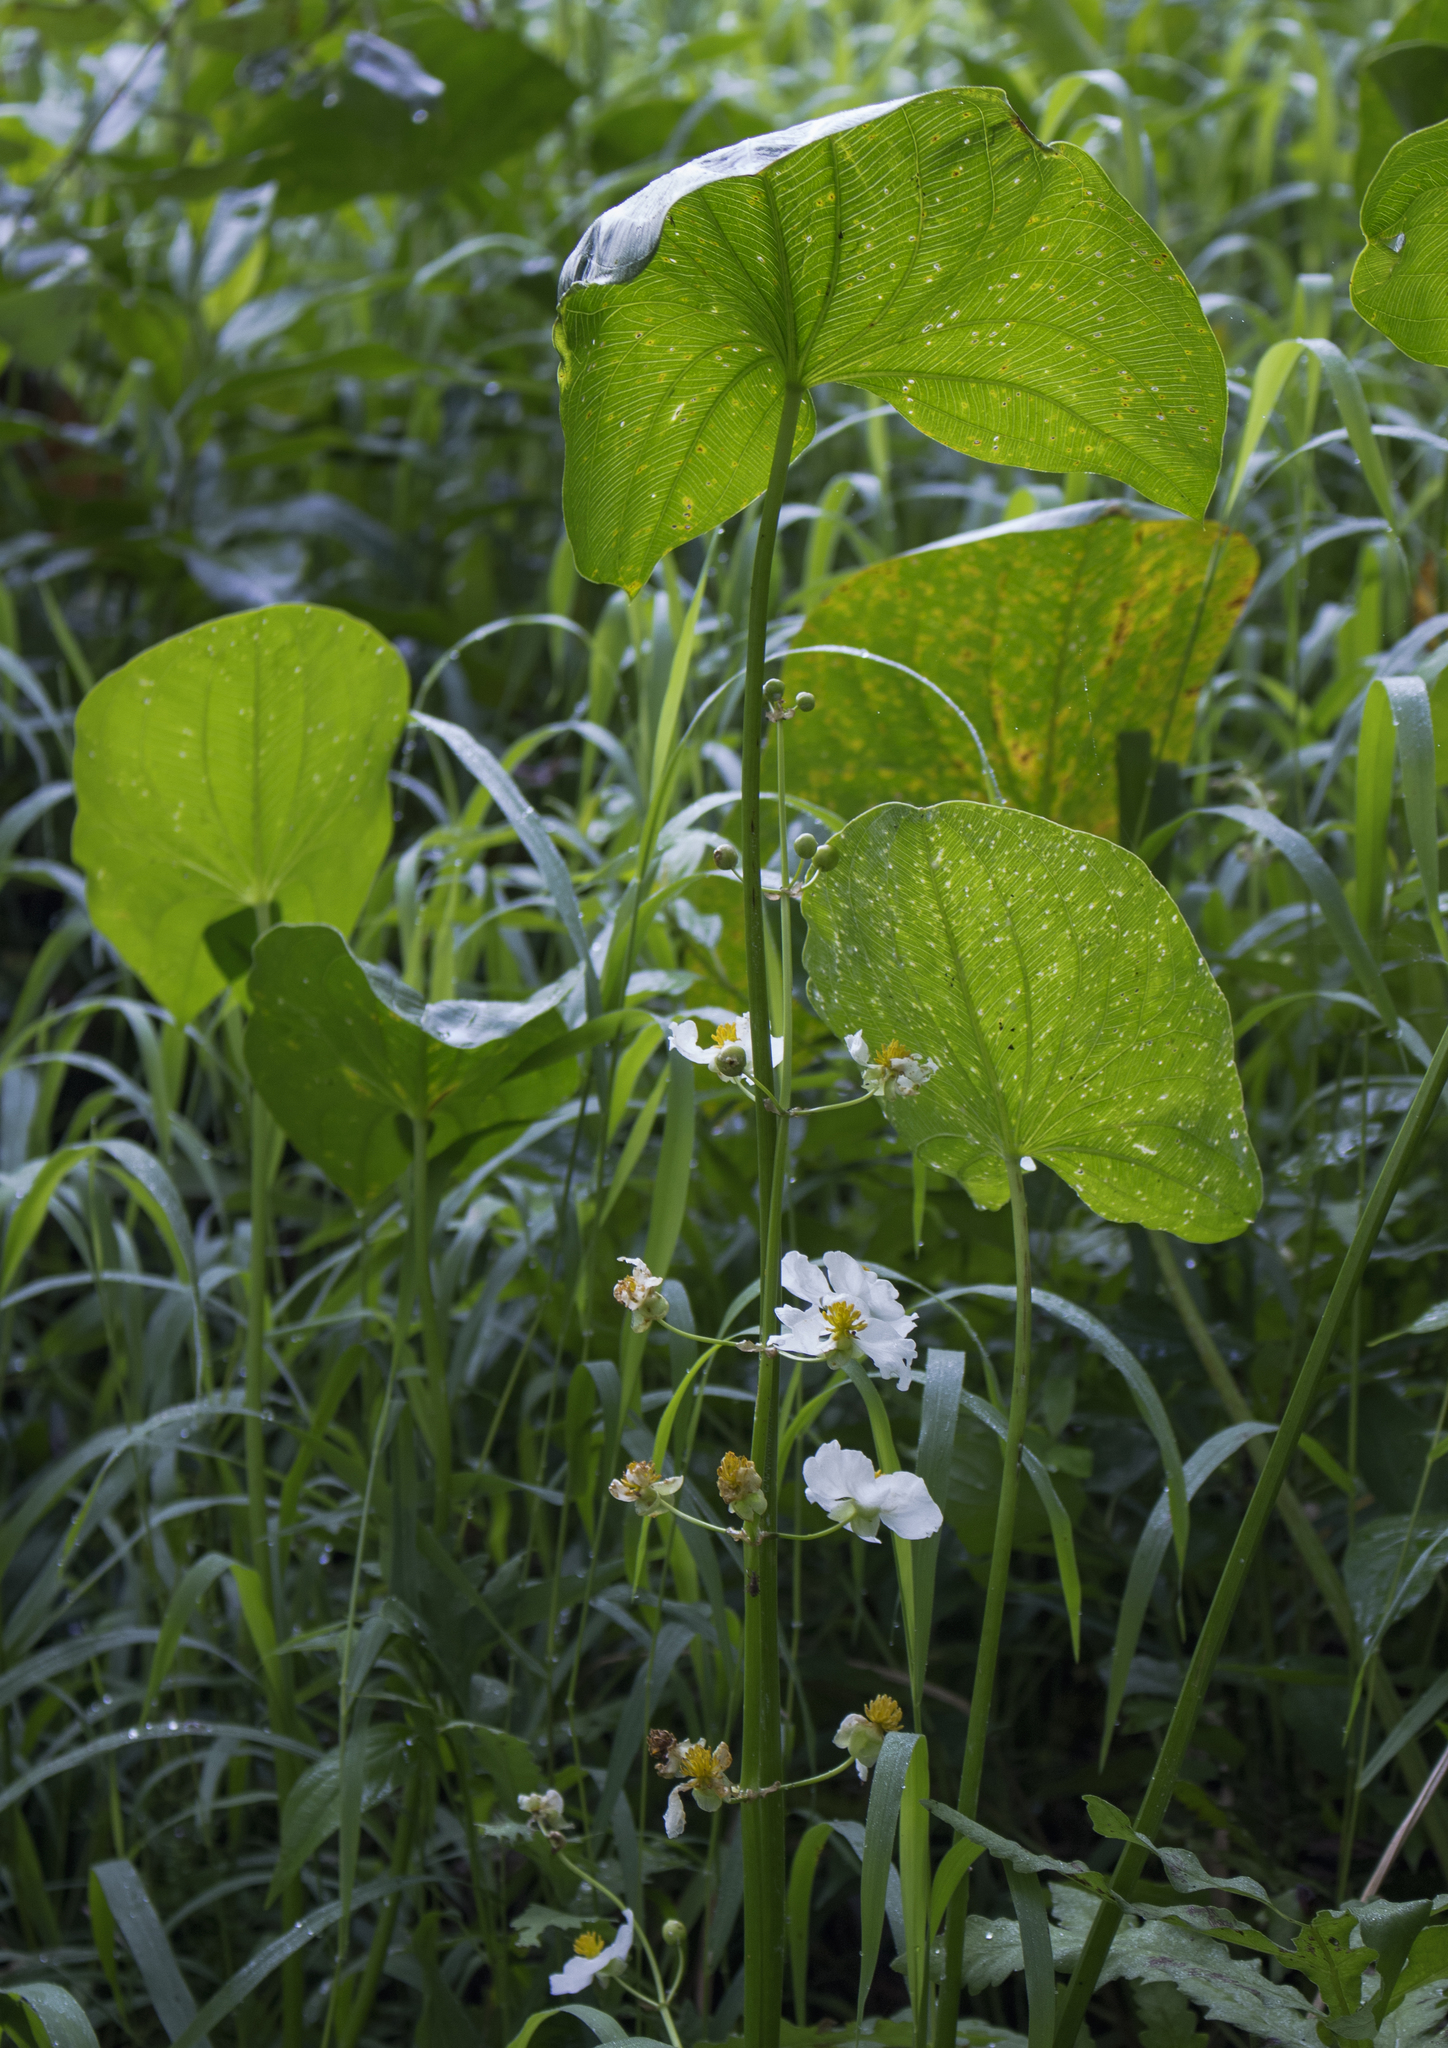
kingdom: Plantae
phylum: Tracheophyta
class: Liliopsida
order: Alismatales
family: Alismataceae
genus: Sagittaria
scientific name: Sagittaria latifolia
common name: Duck-potato
